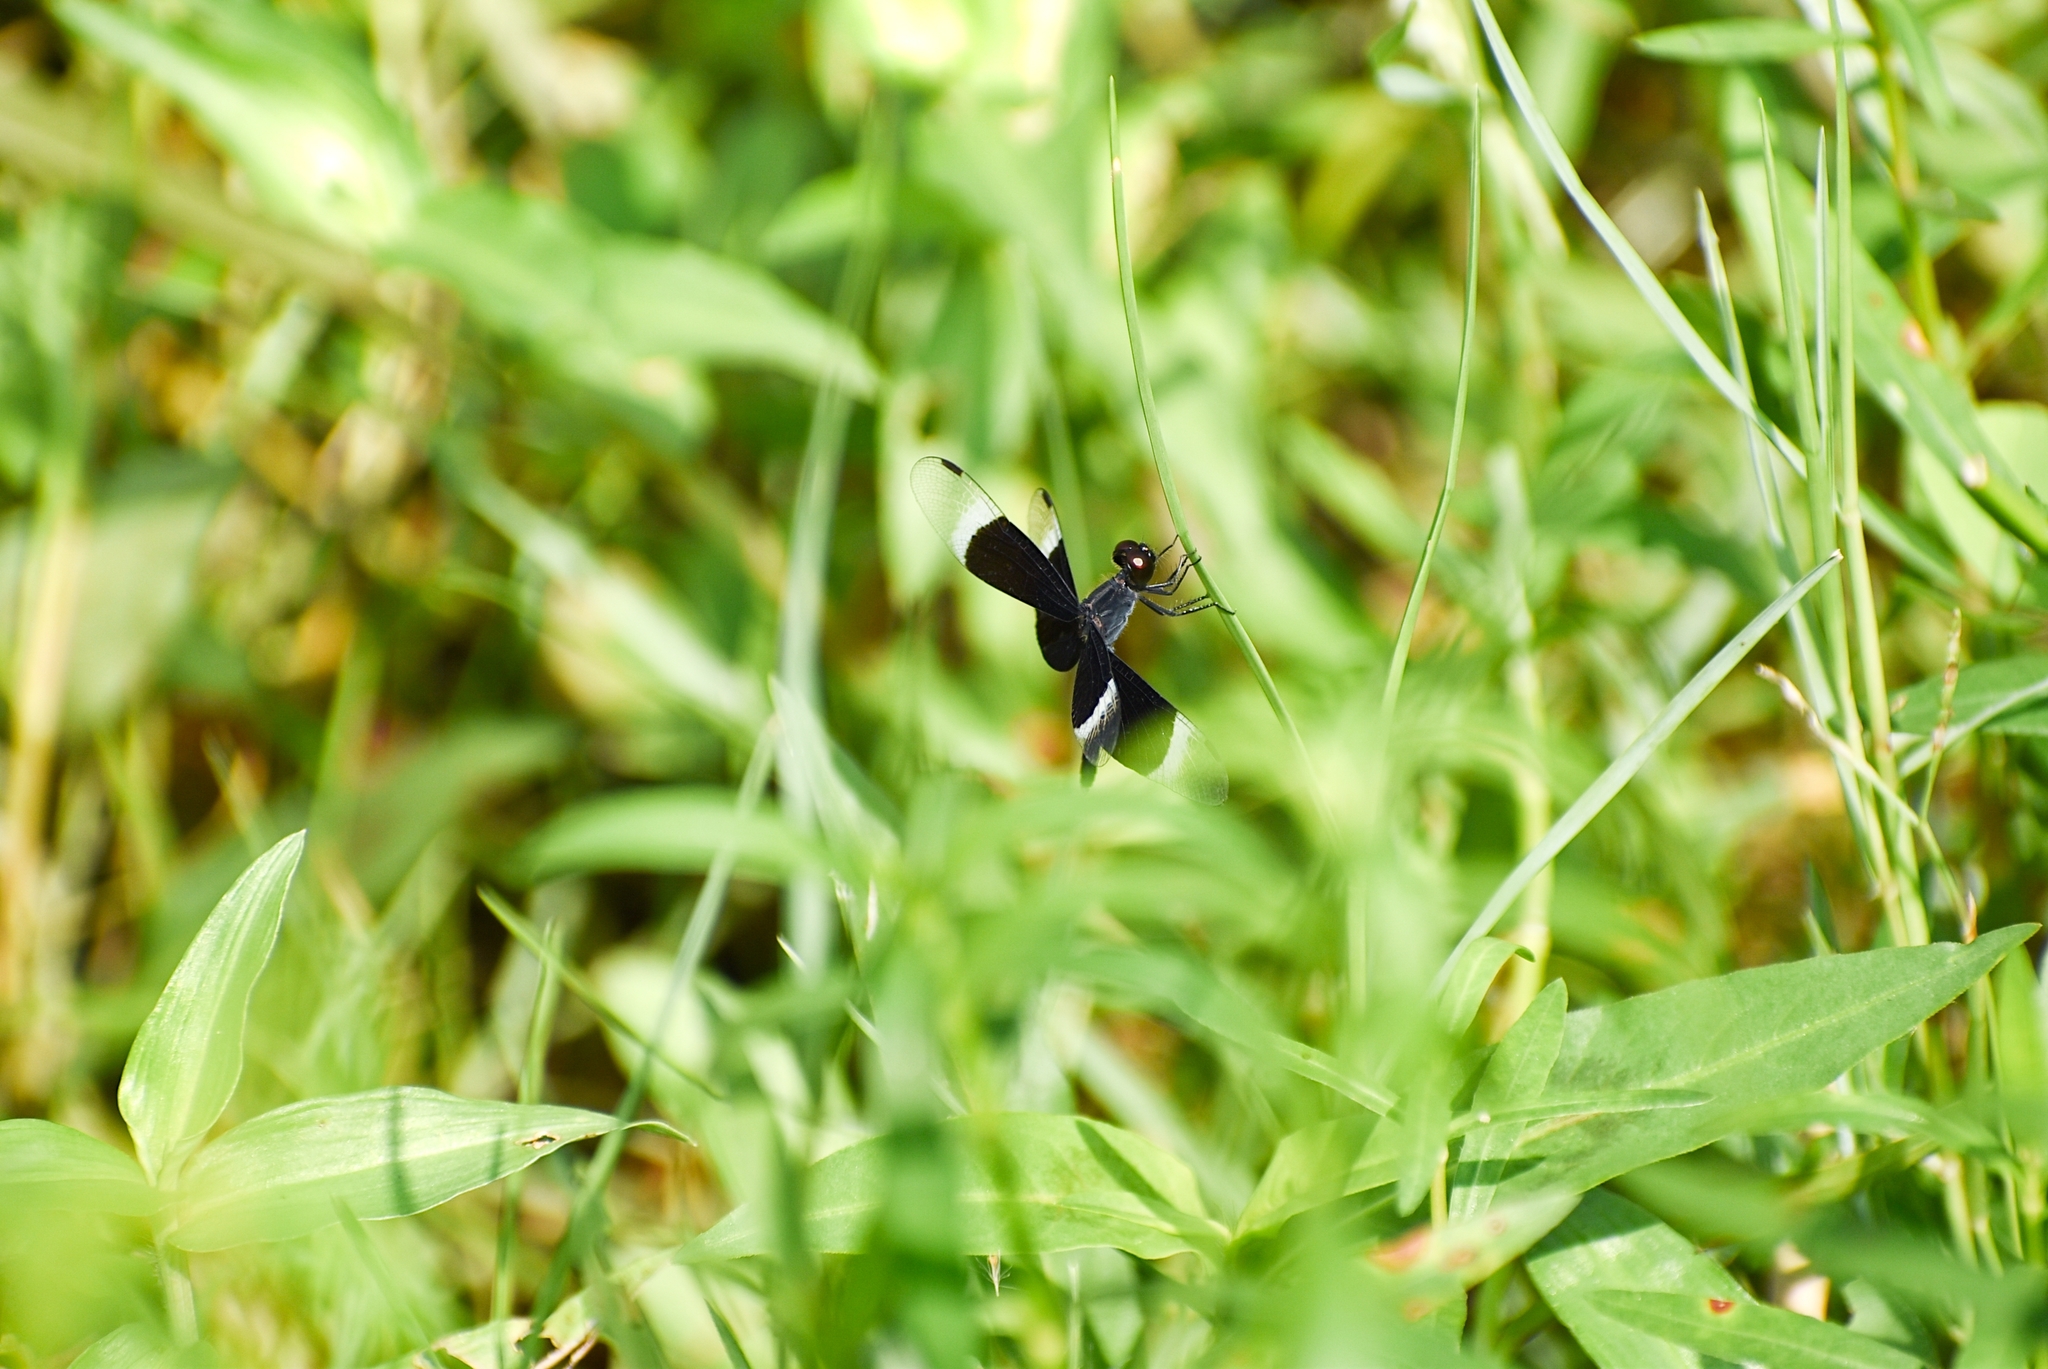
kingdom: Animalia
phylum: Arthropoda
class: Insecta
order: Odonata
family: Libellulidae
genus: Neurothemis
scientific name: Neurothemis tullia
